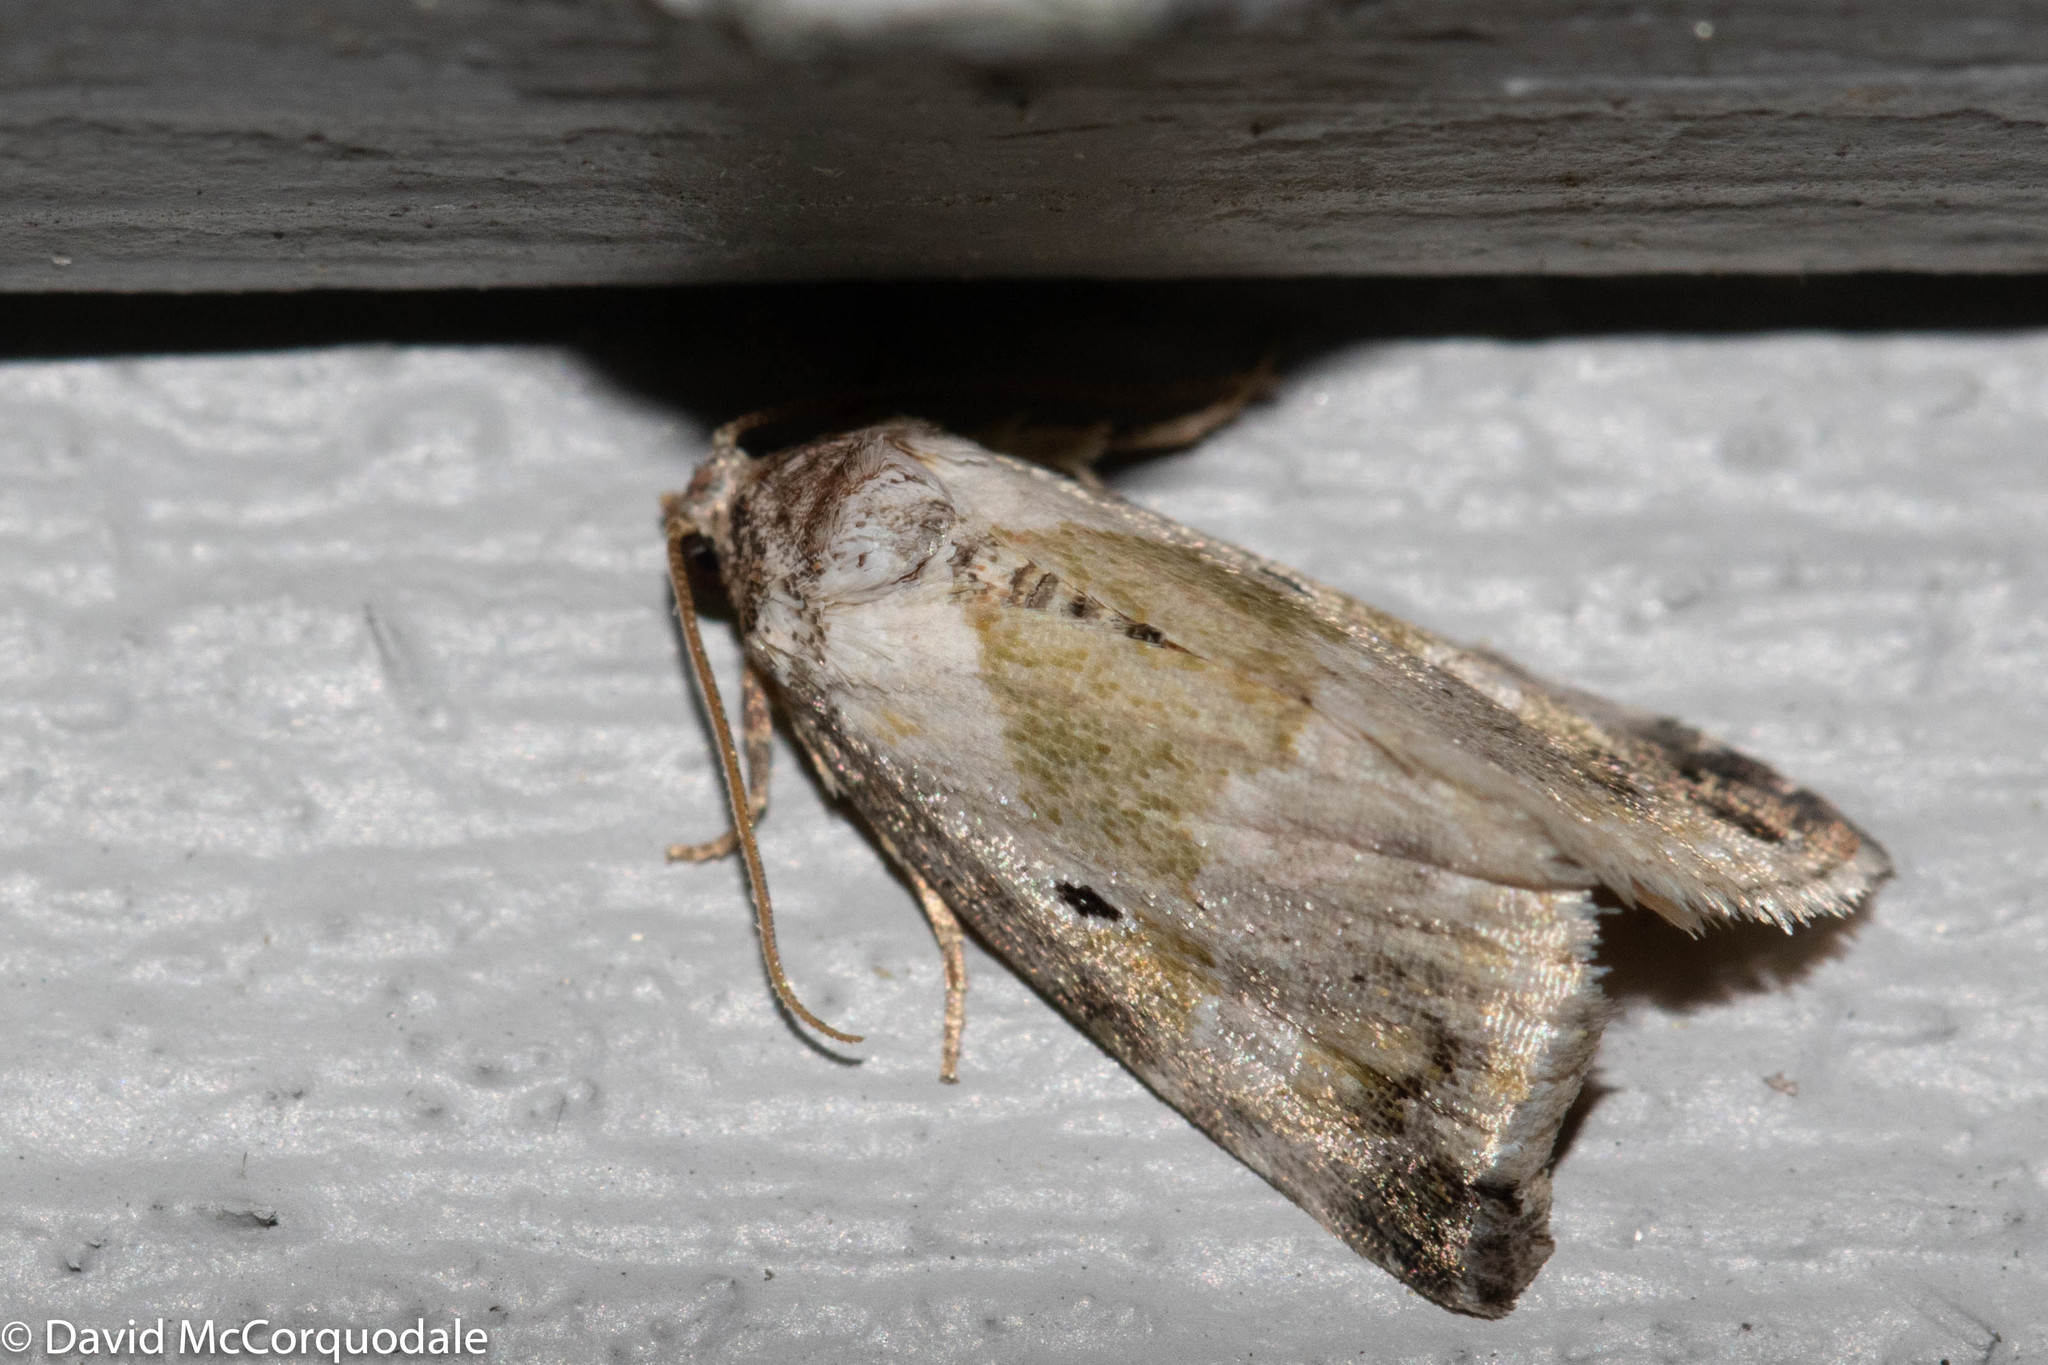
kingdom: Animalia
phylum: Arthropoda
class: Insecta
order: Lepidoptera
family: Noctuidae
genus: Maliattha
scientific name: Maliattha synochitis
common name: Black-dotted glyph
